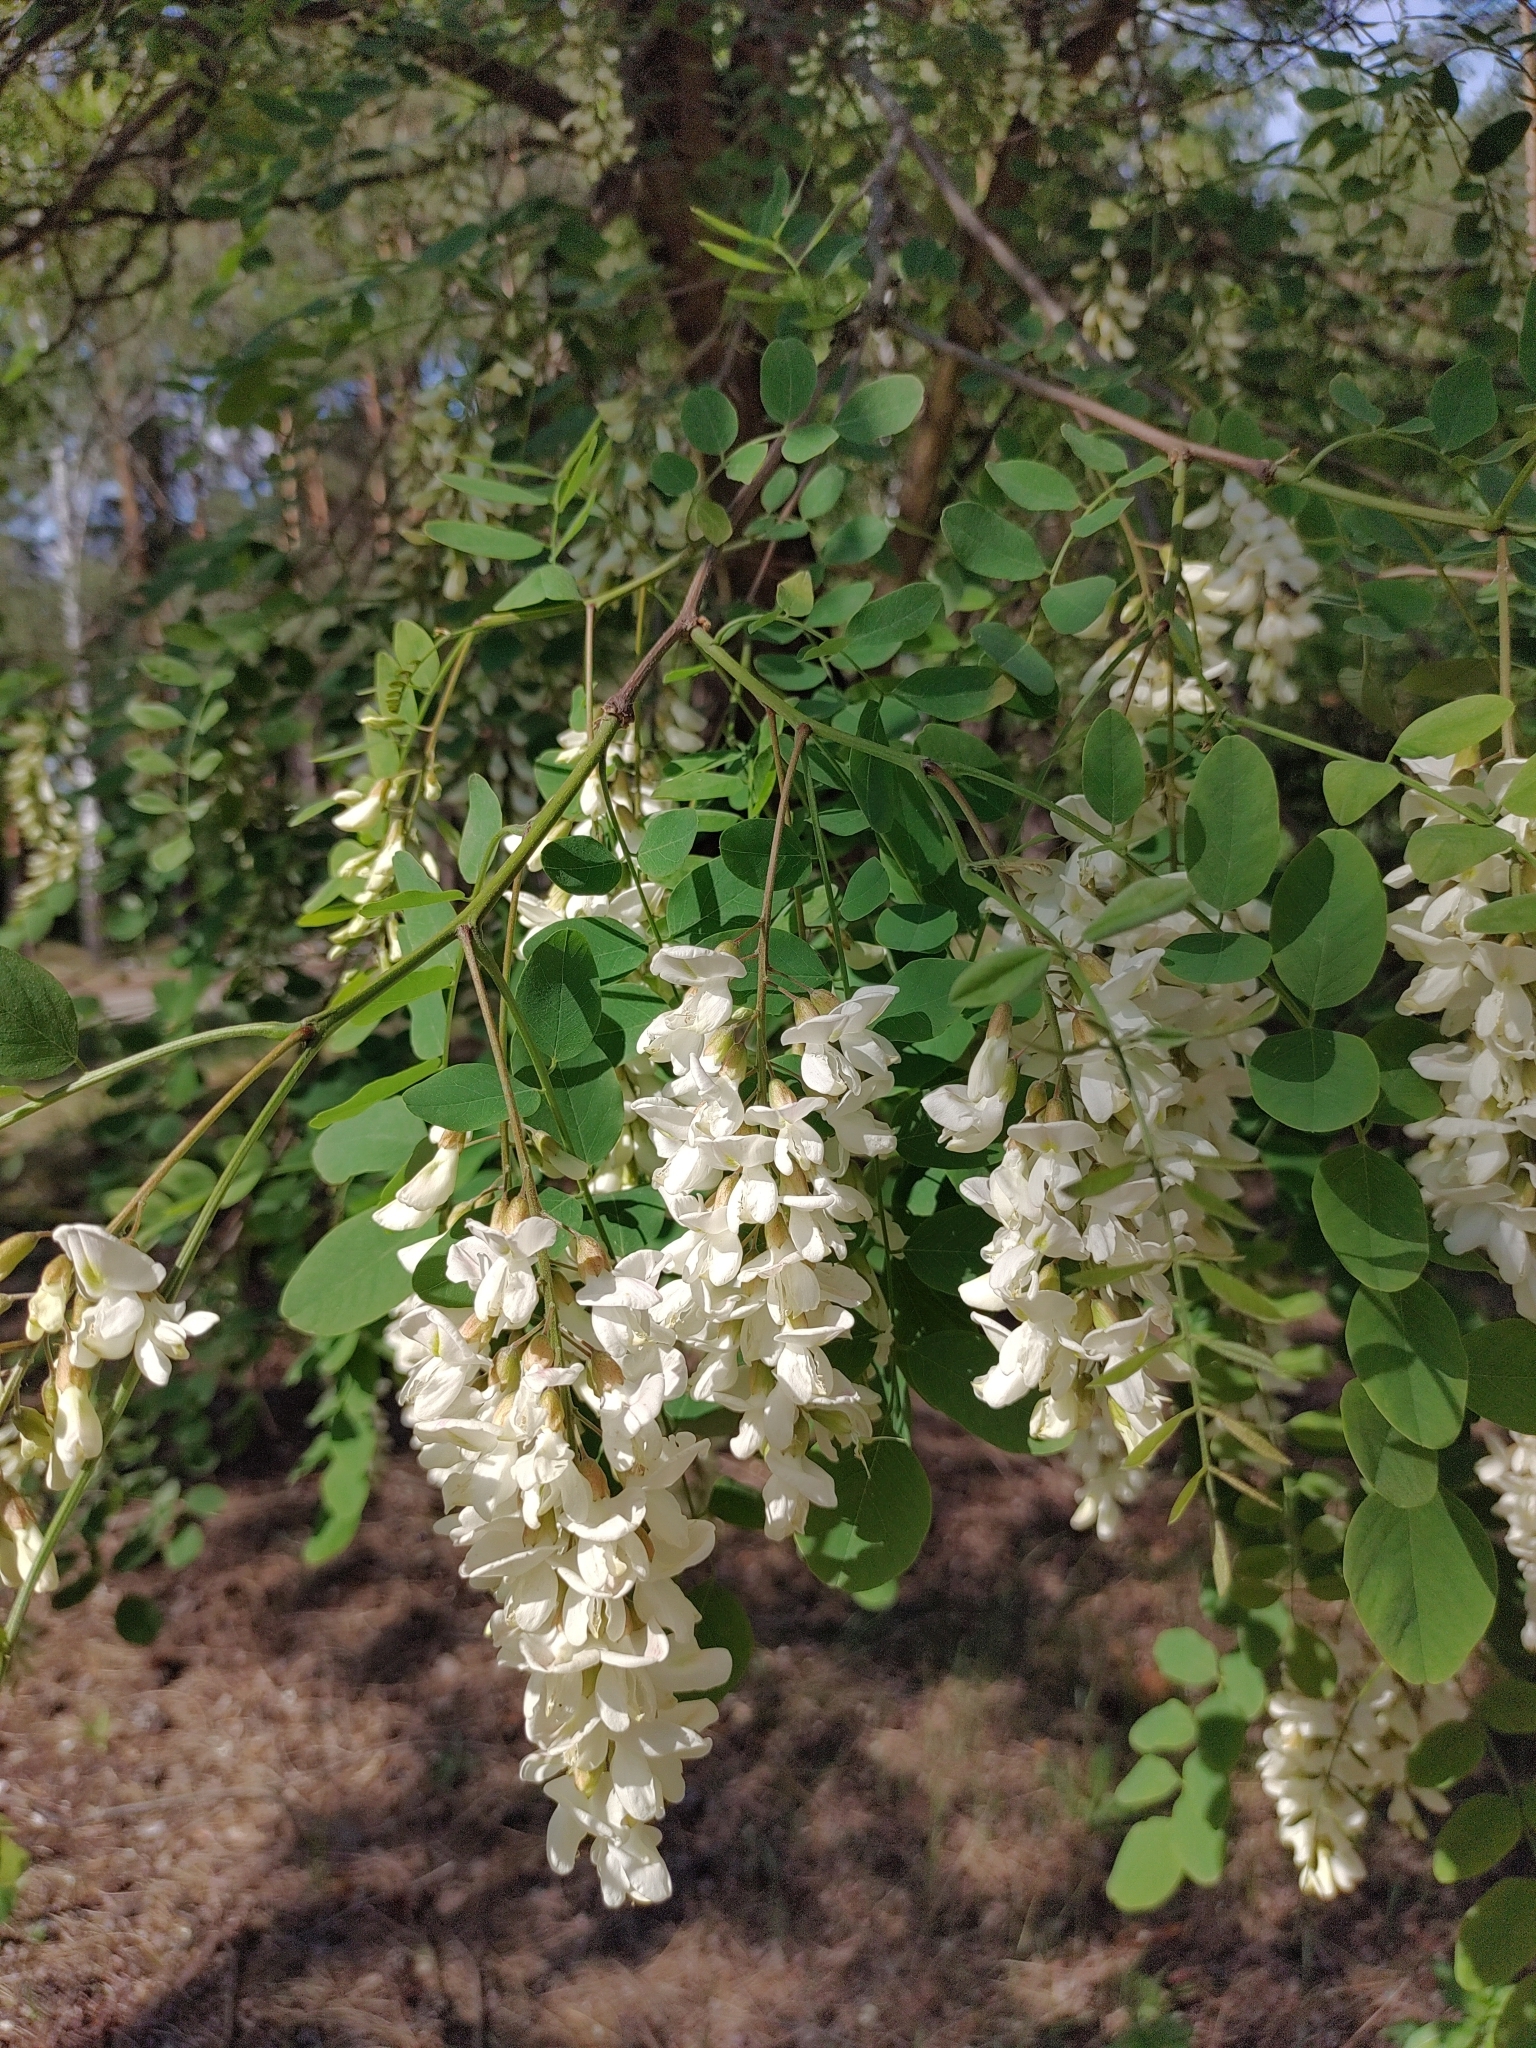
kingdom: Plantae
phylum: Tracheophyta
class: Magnoliopsida
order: Fabales
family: Fabaceae
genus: Robinia
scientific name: Robinia pseudoacacia
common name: Black locust
